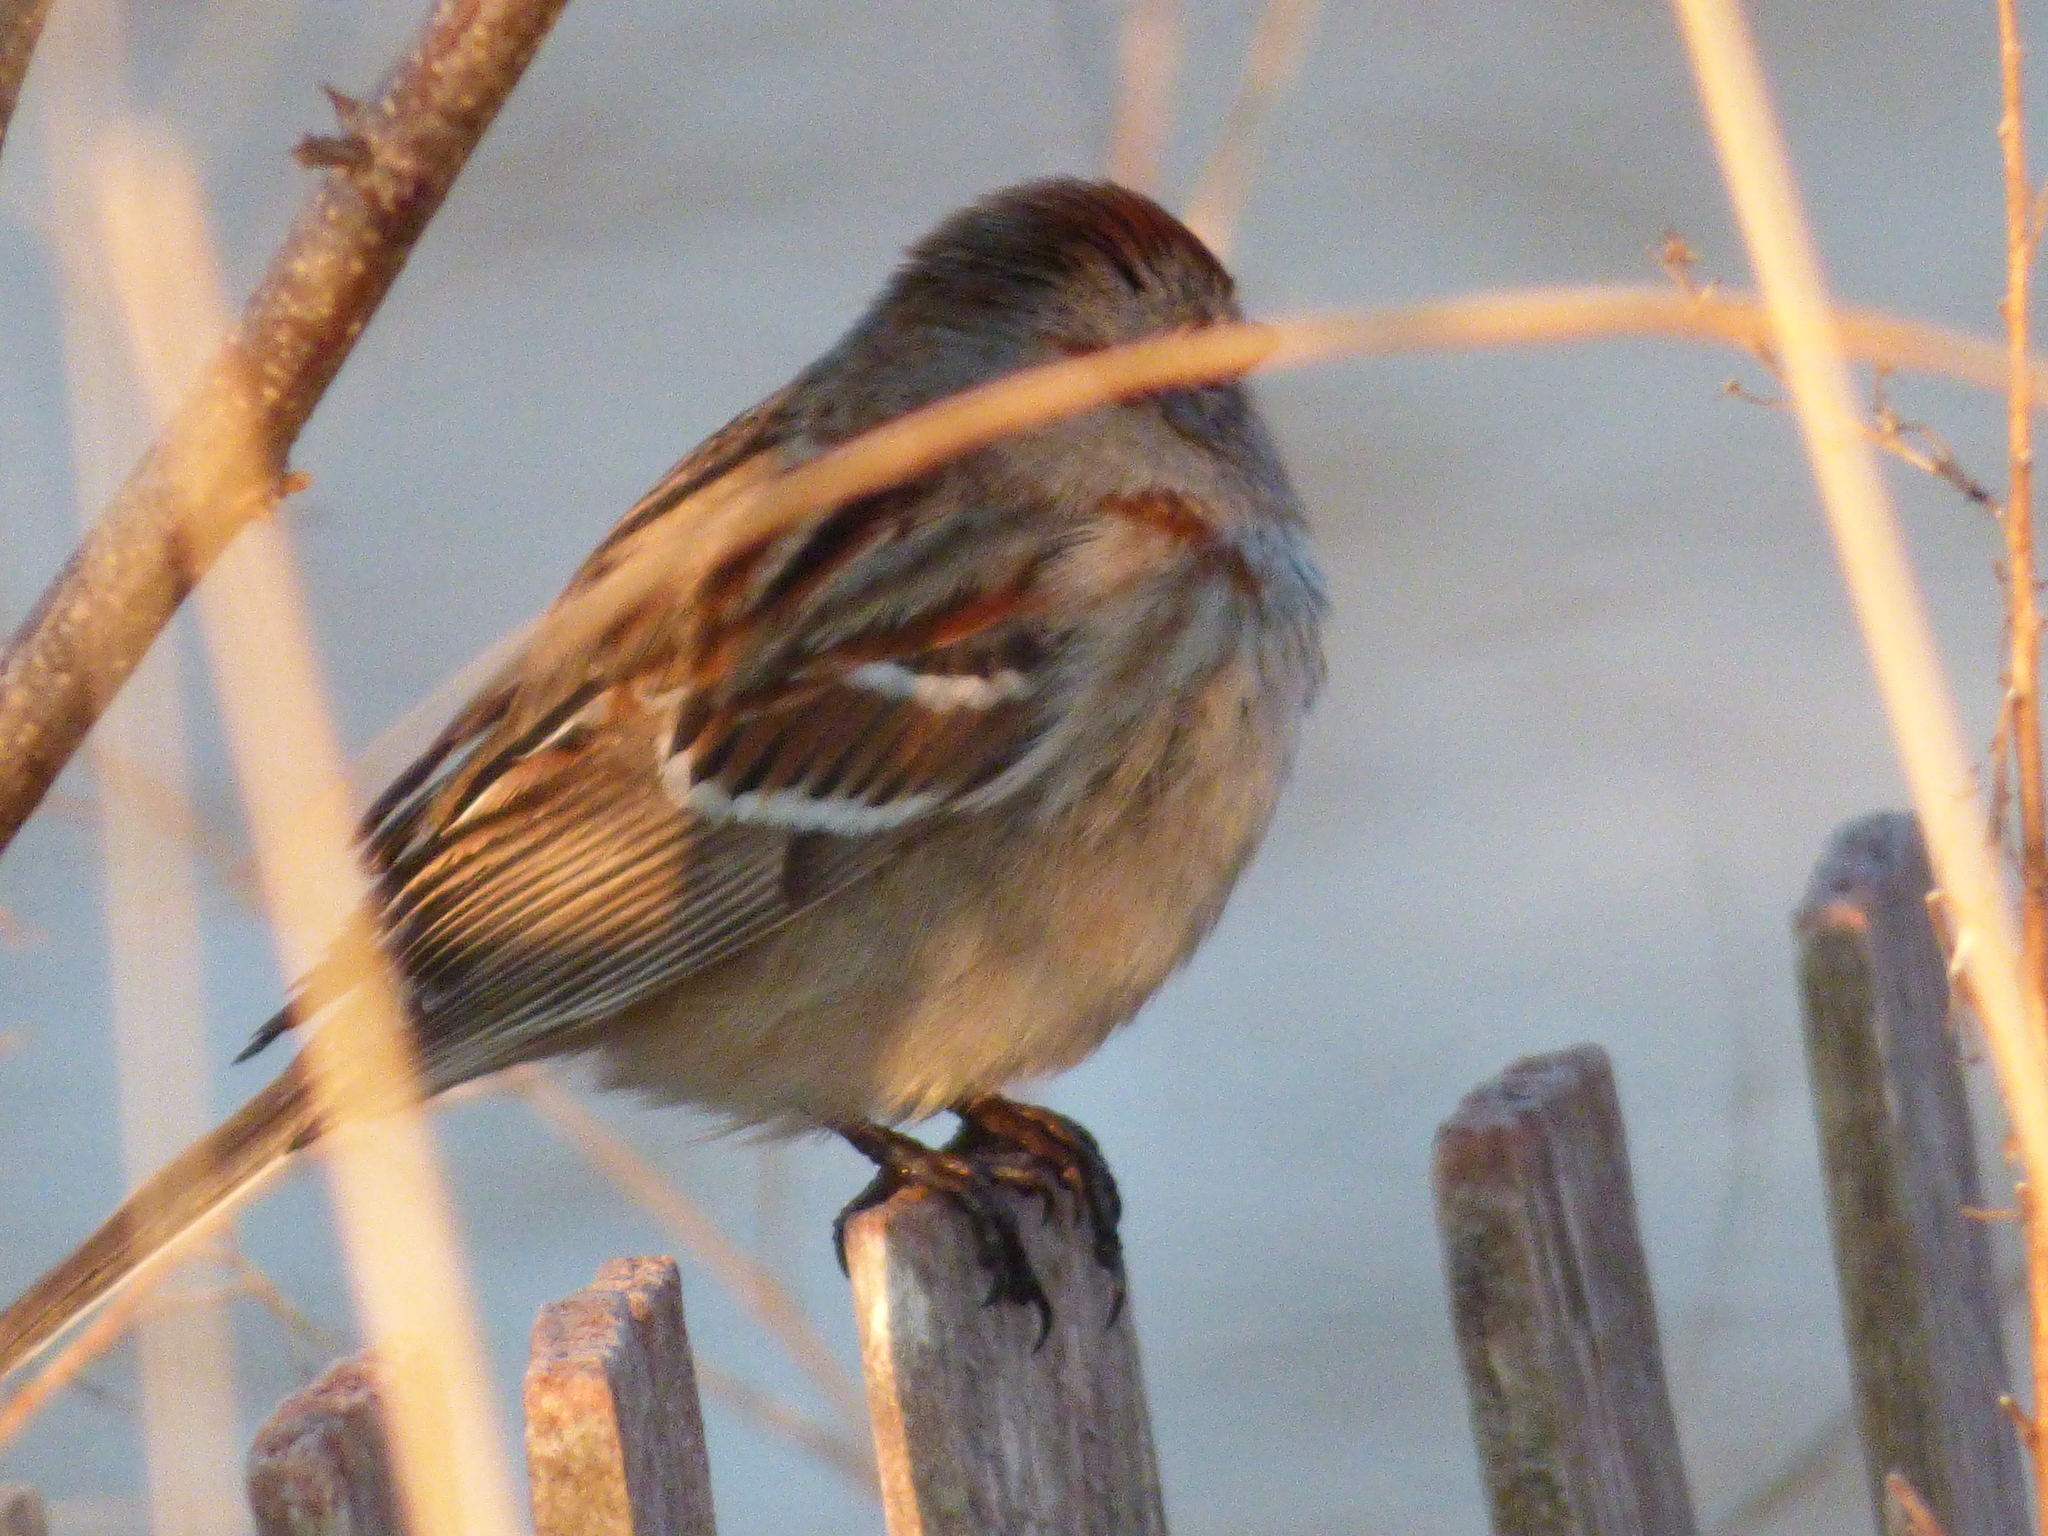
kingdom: Animalia
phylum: Chordata
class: Aves
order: Passeriformes
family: Passerellidae
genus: Spizelloides
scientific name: Spizelloides arborea
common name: American tree sparrow
